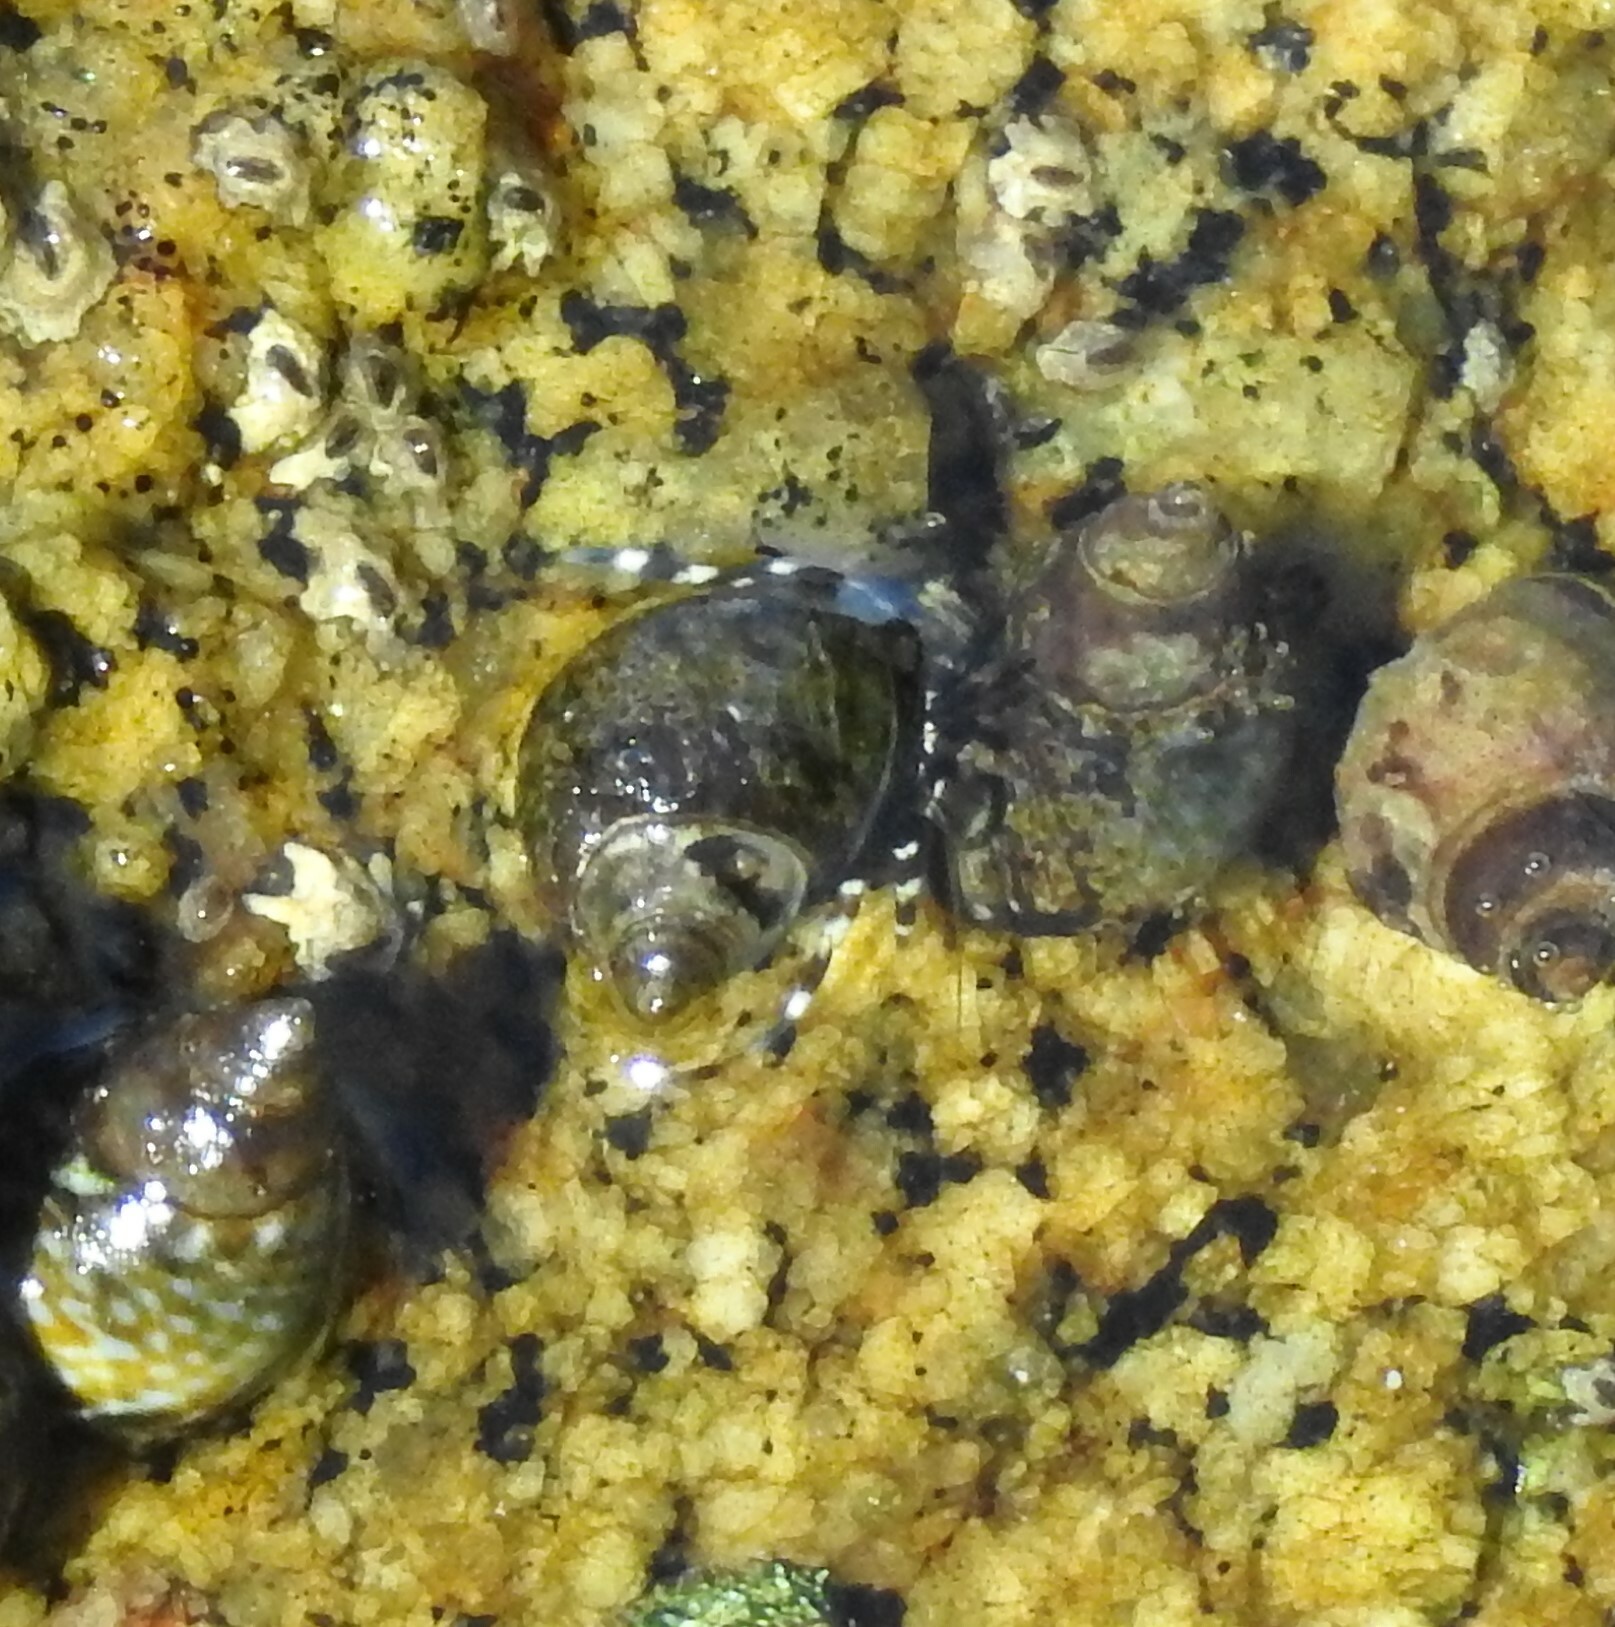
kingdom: Animalia
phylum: Arthropoda
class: Malacostraca
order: Decapoda
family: Paguridae
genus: Pagurus
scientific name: Pagurus samuelis
